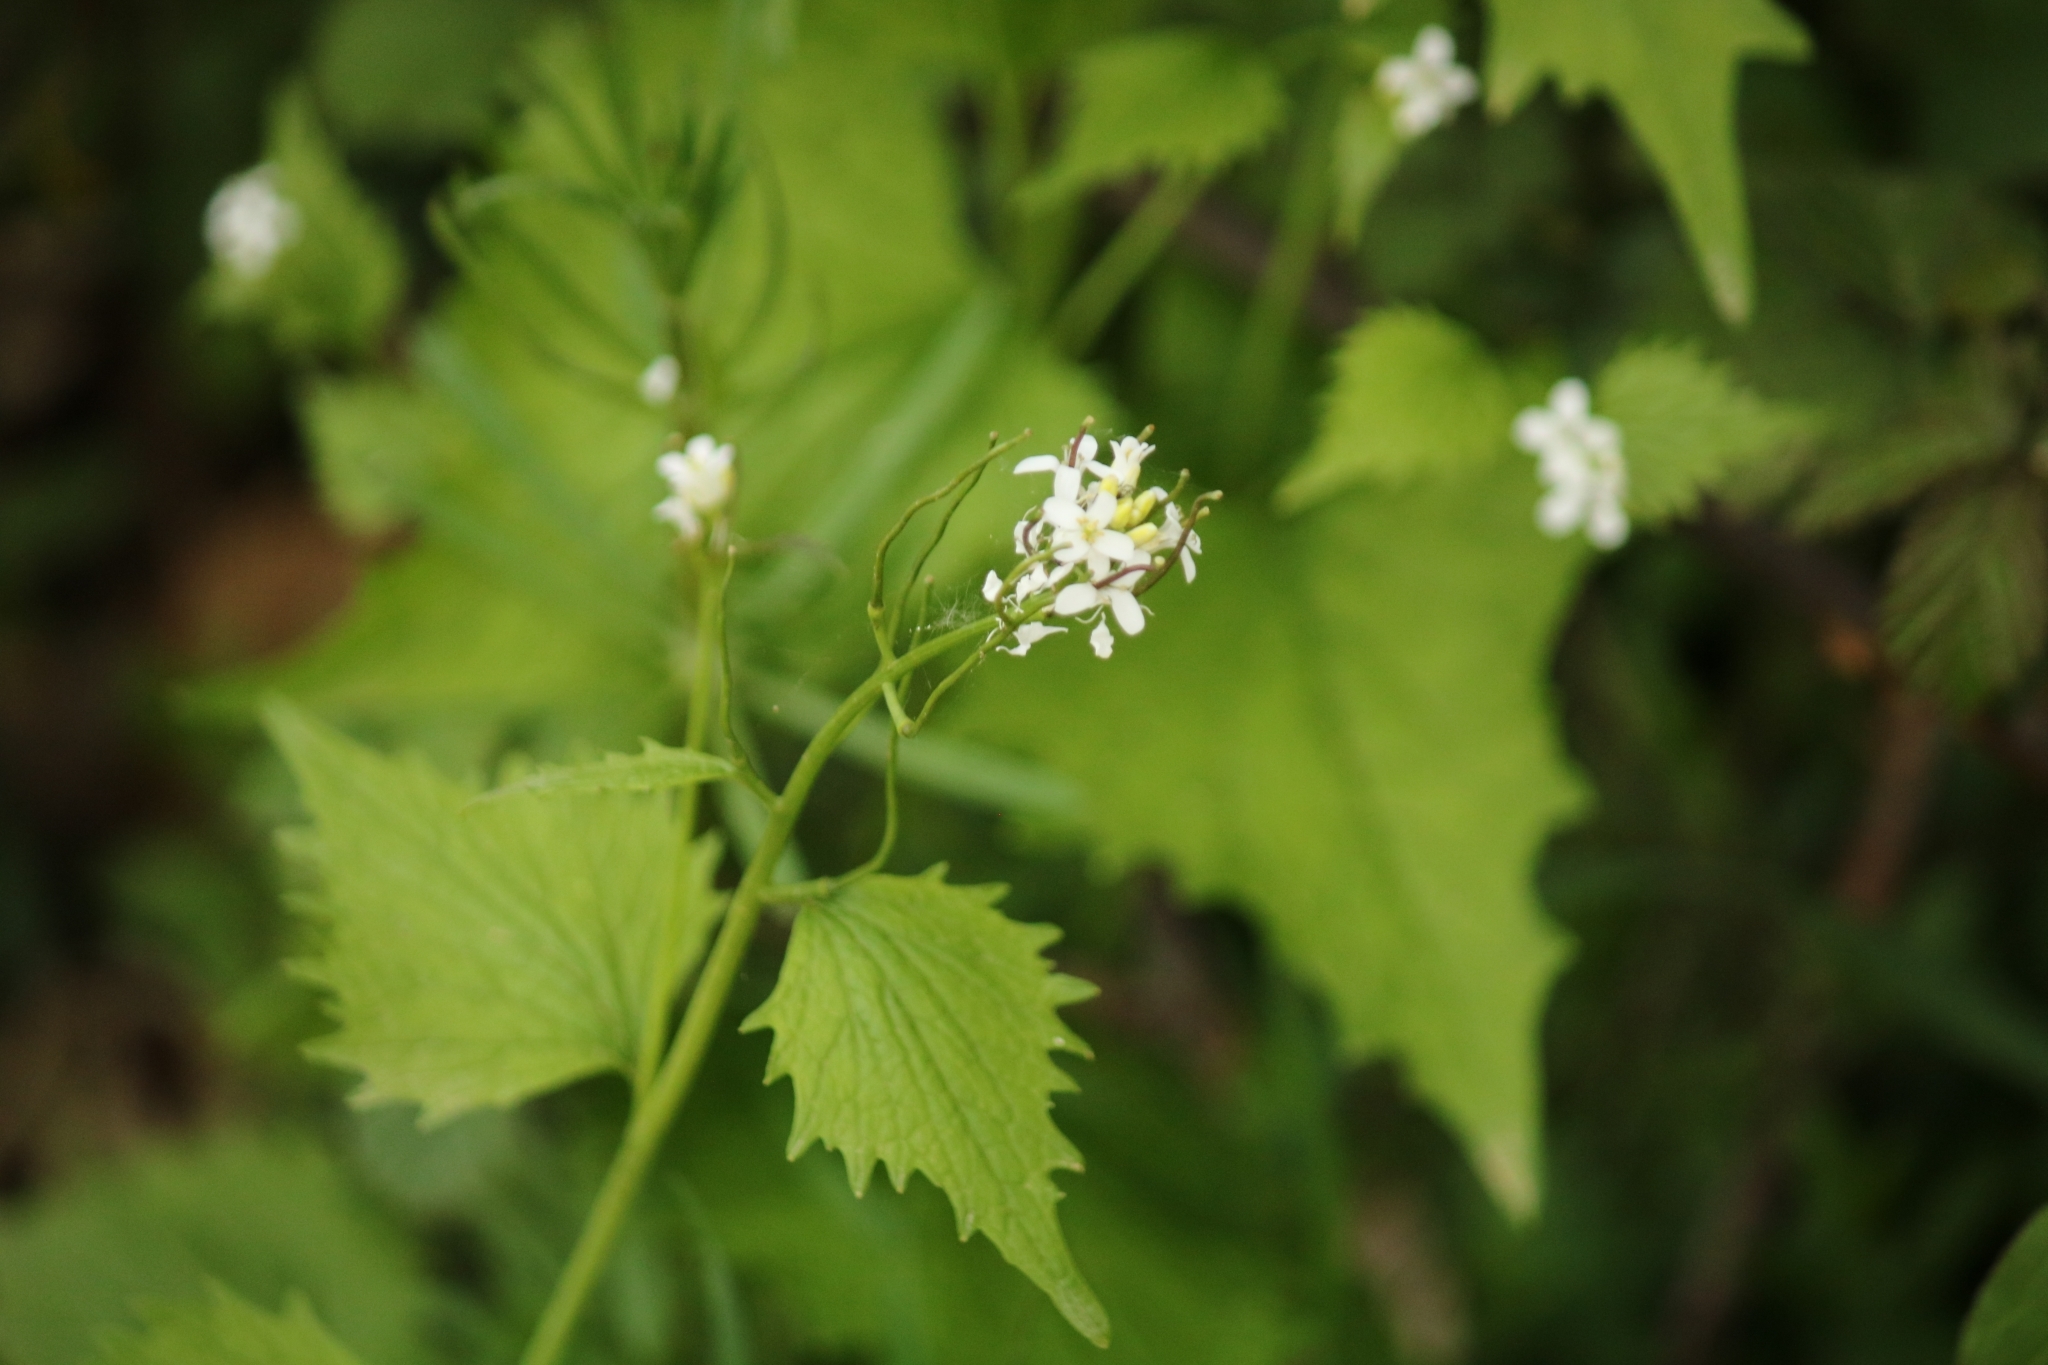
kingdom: Plantae
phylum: Tracheophyta
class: Magnoliopsida
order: Brassicales
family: Brassicaceae
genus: Alliaria
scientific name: Alliaria petiolata
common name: Garlic mustard
